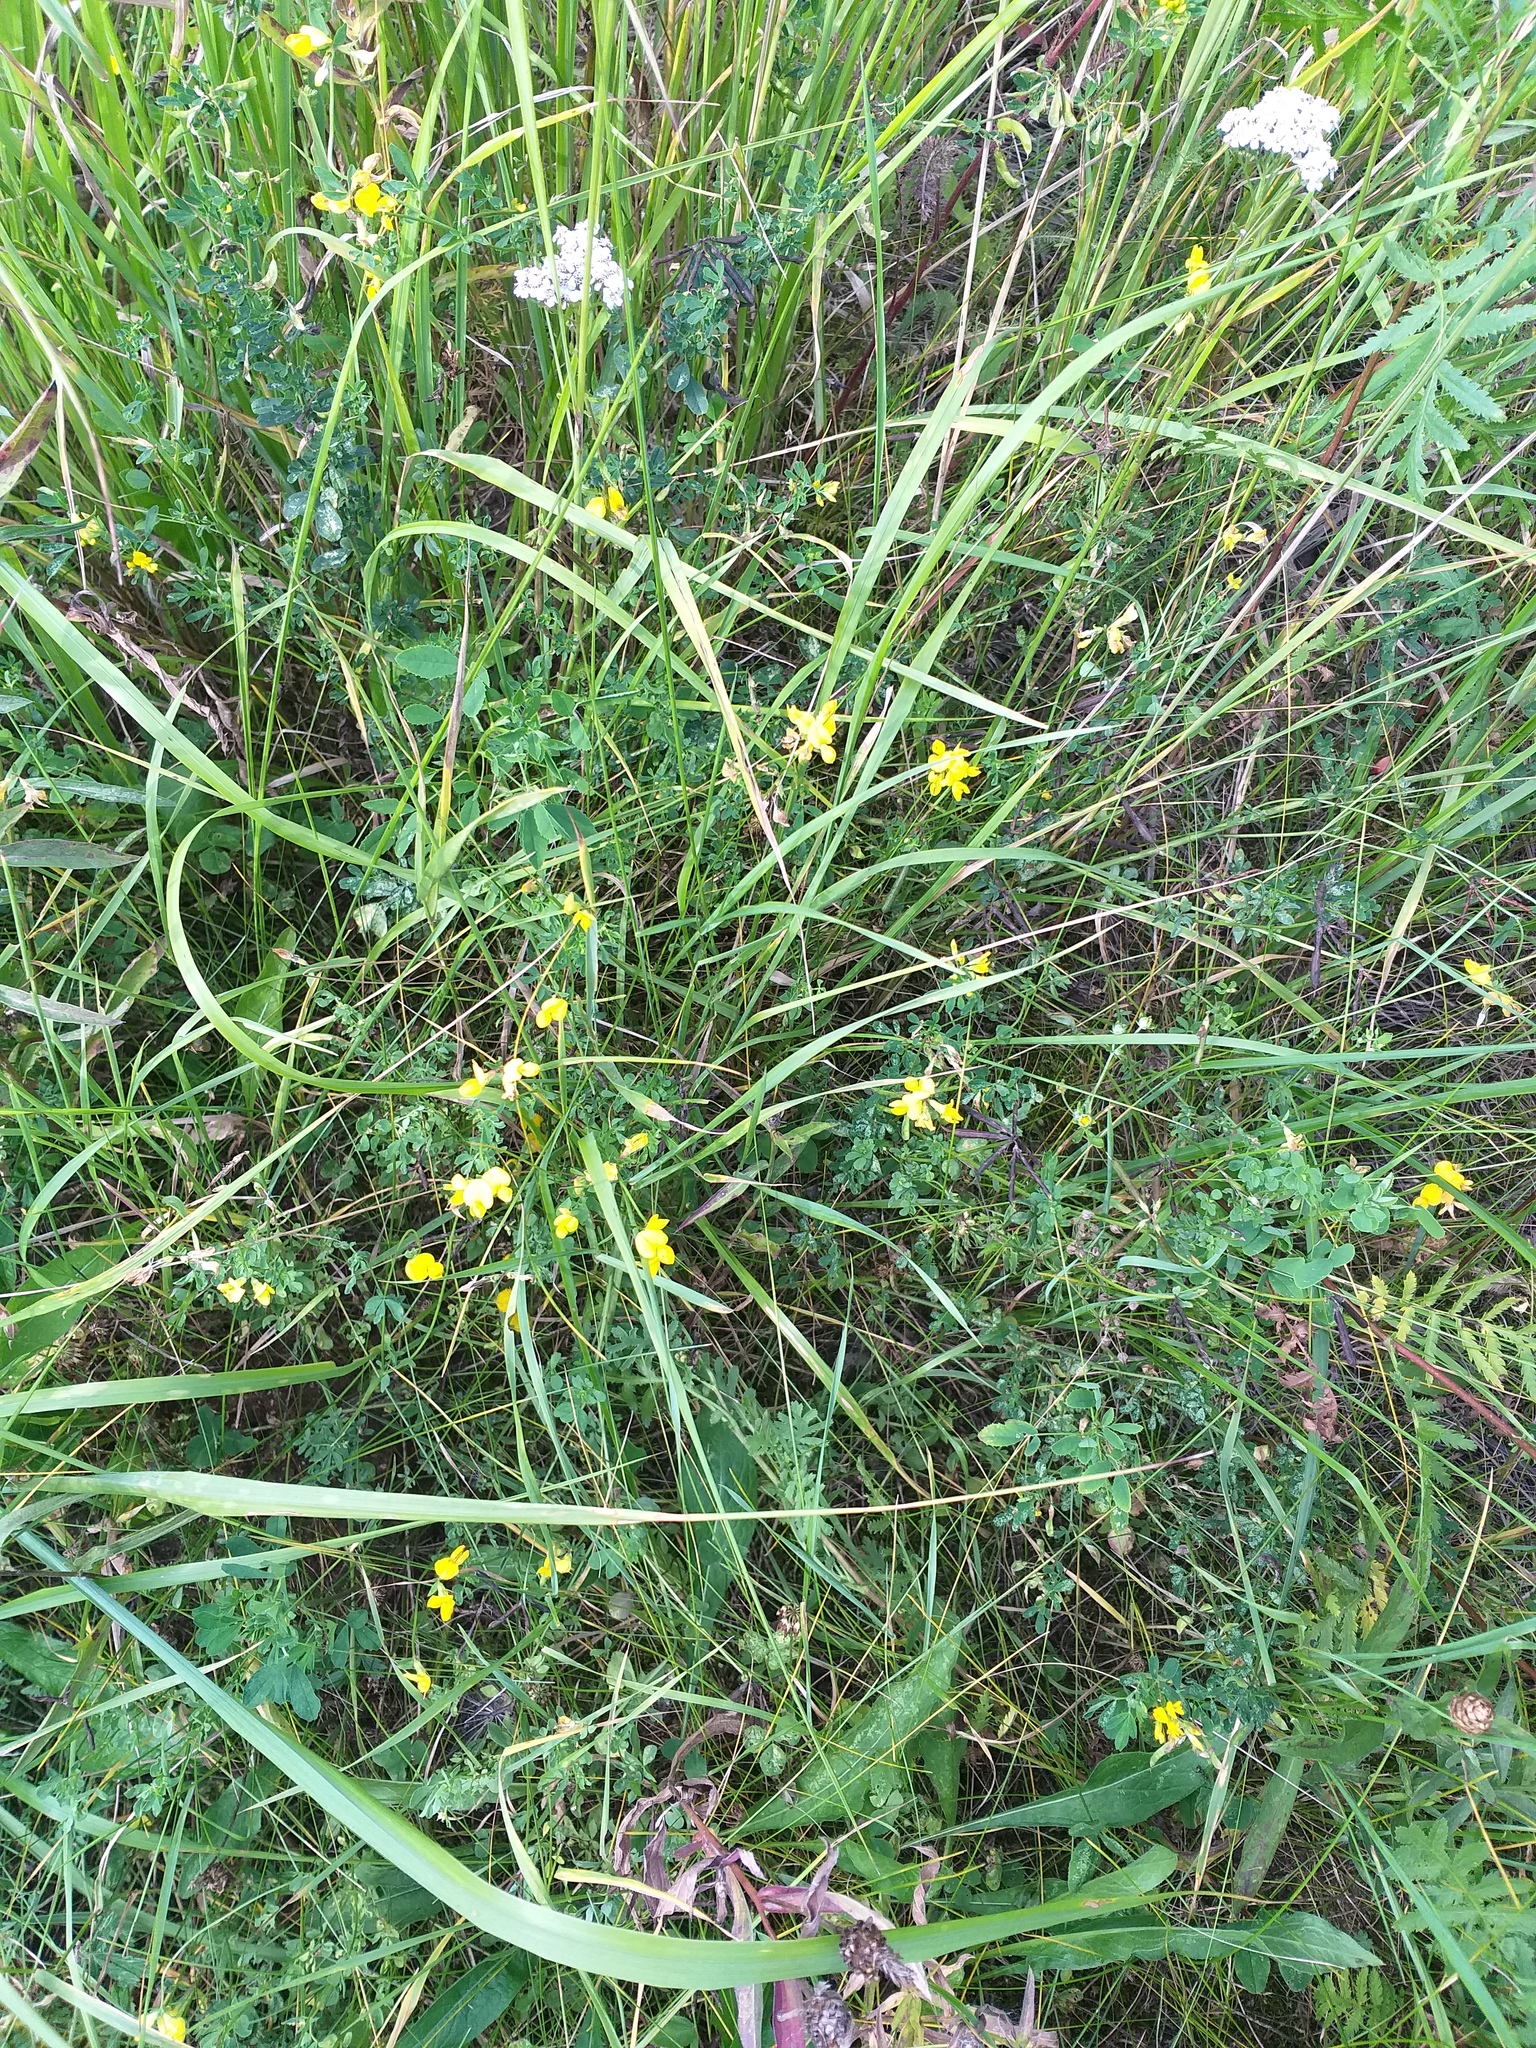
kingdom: Plantae
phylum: Tracheophyta
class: Magnoliopsida
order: Fabales
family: Fabaceae
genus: Lotus
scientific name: Lotus corniculatus
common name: Common bird's-foot-trefoil
